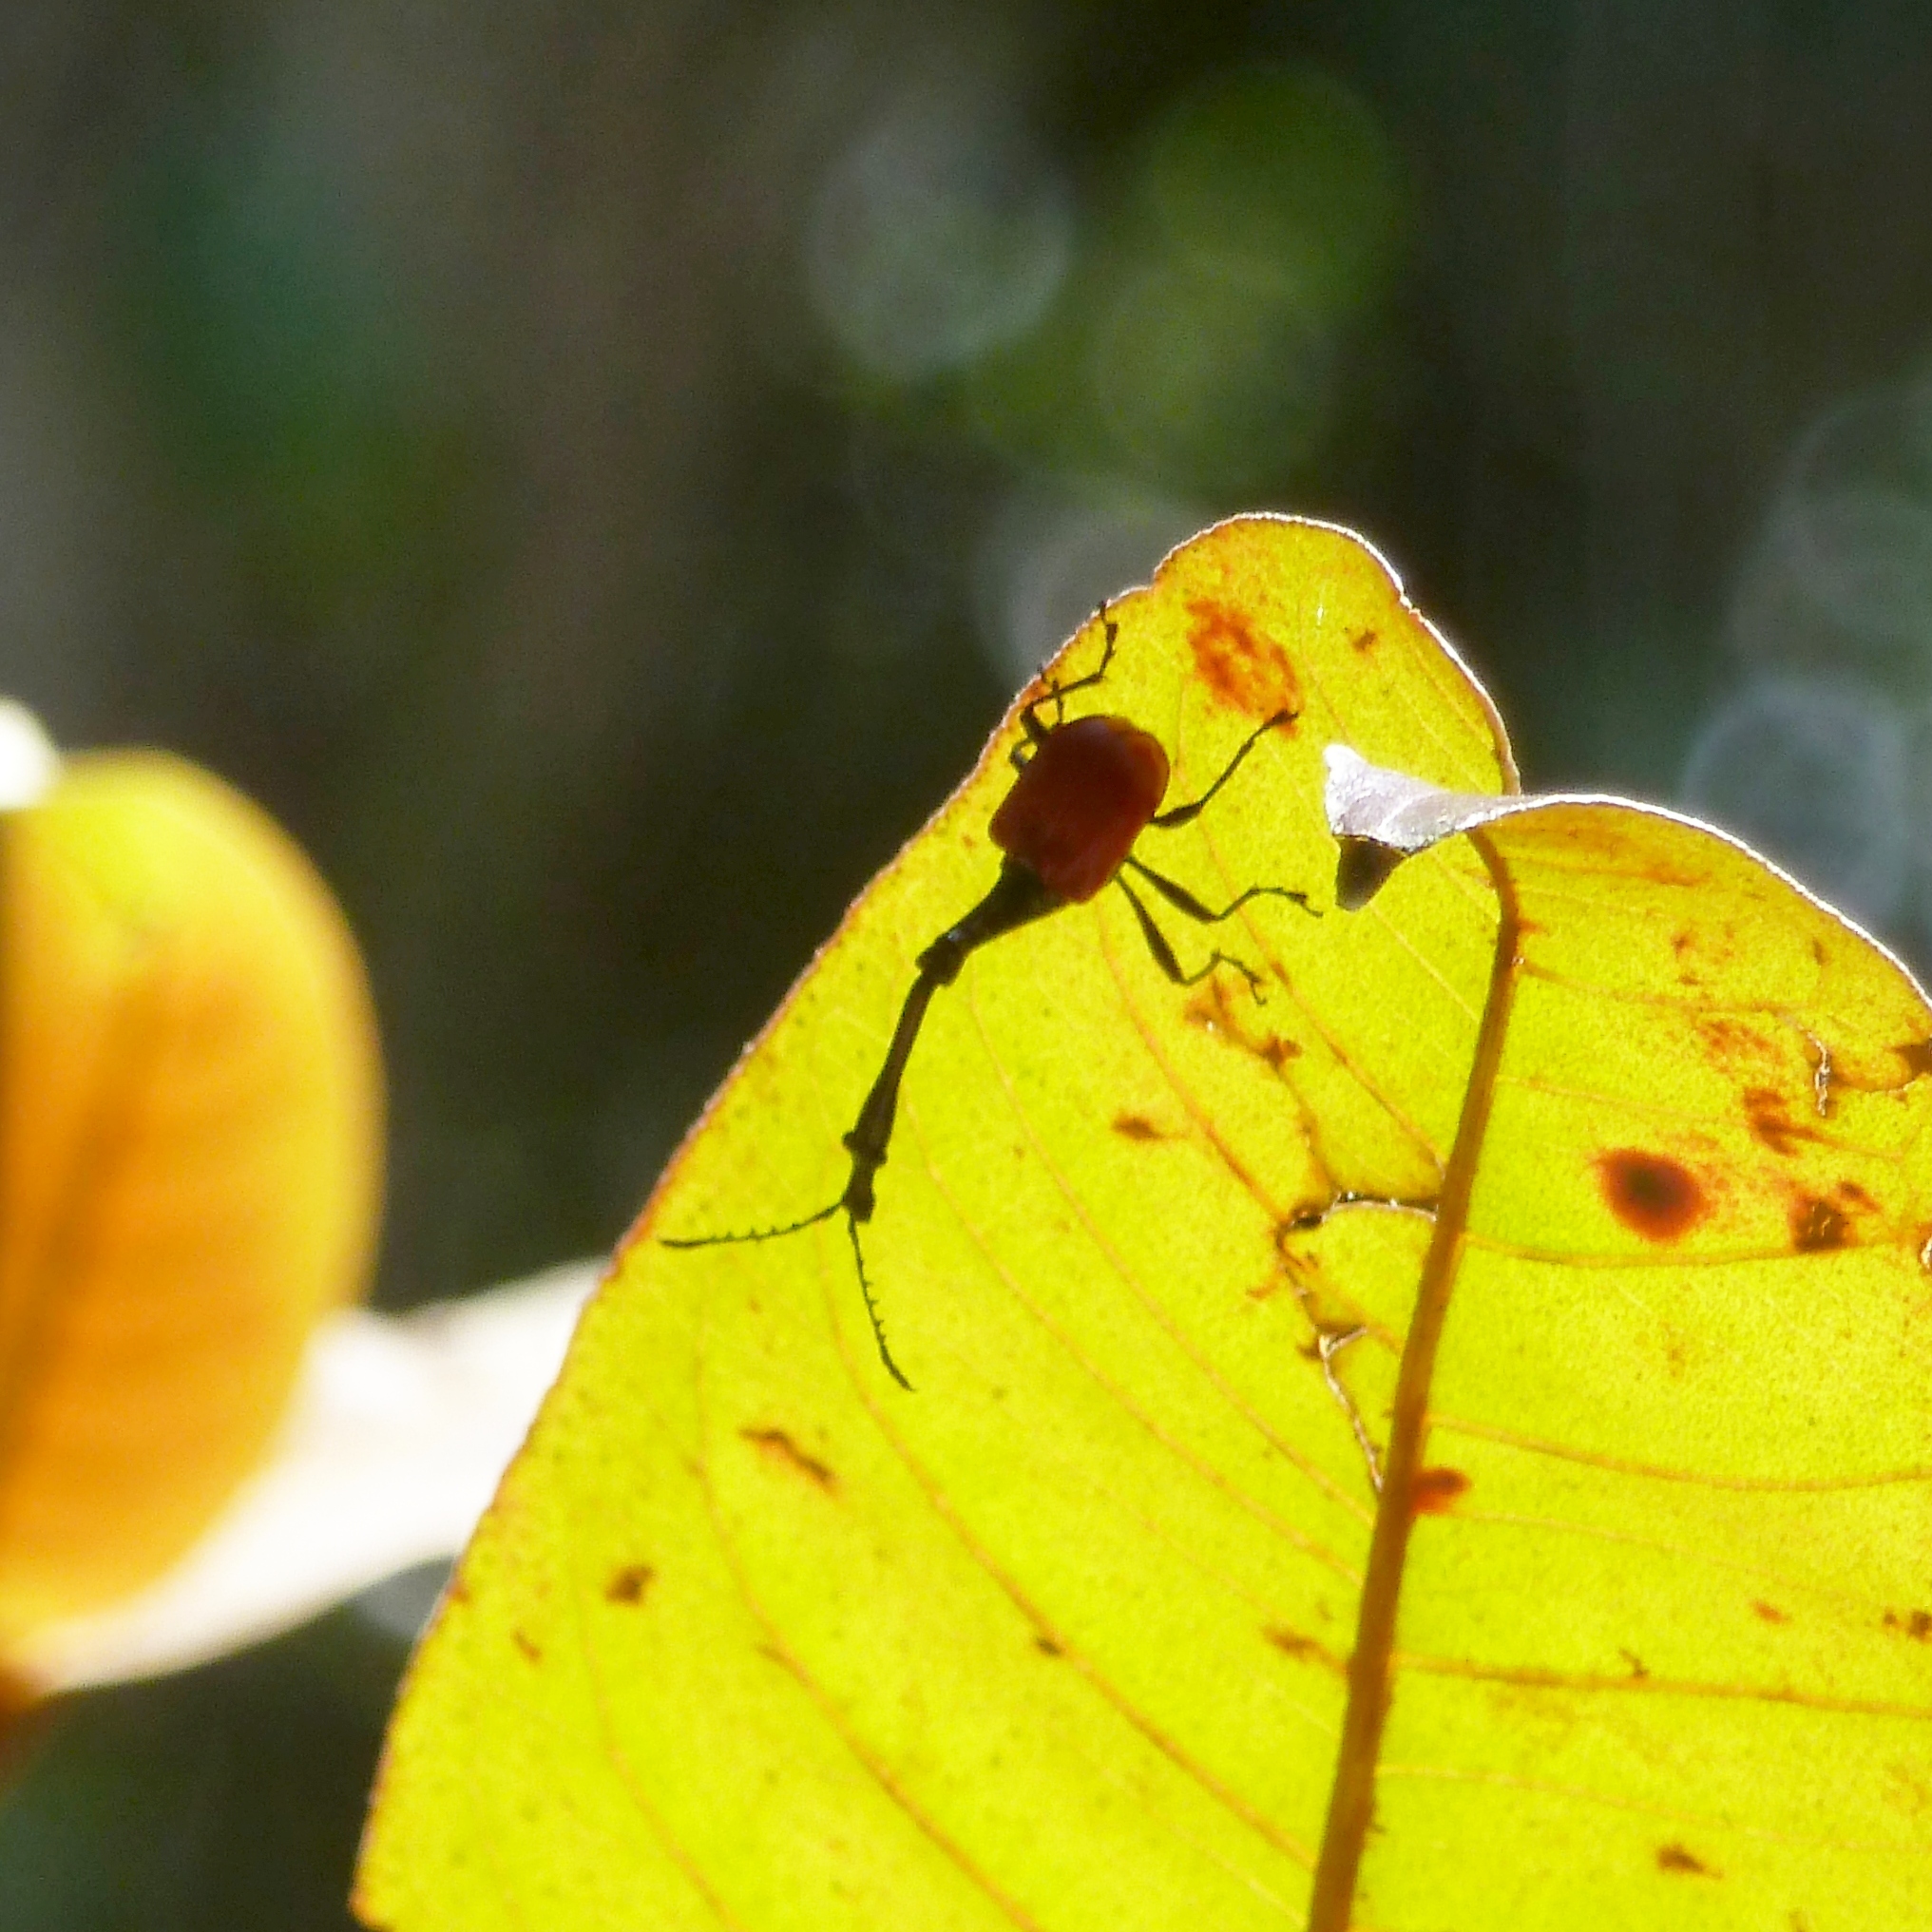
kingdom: Animalia
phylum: Arthropoda
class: Insecta
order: Coleoptera
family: Attelabidae
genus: Trachelophorus
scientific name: Trachelophorus giraffa
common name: Giraffe weevil
